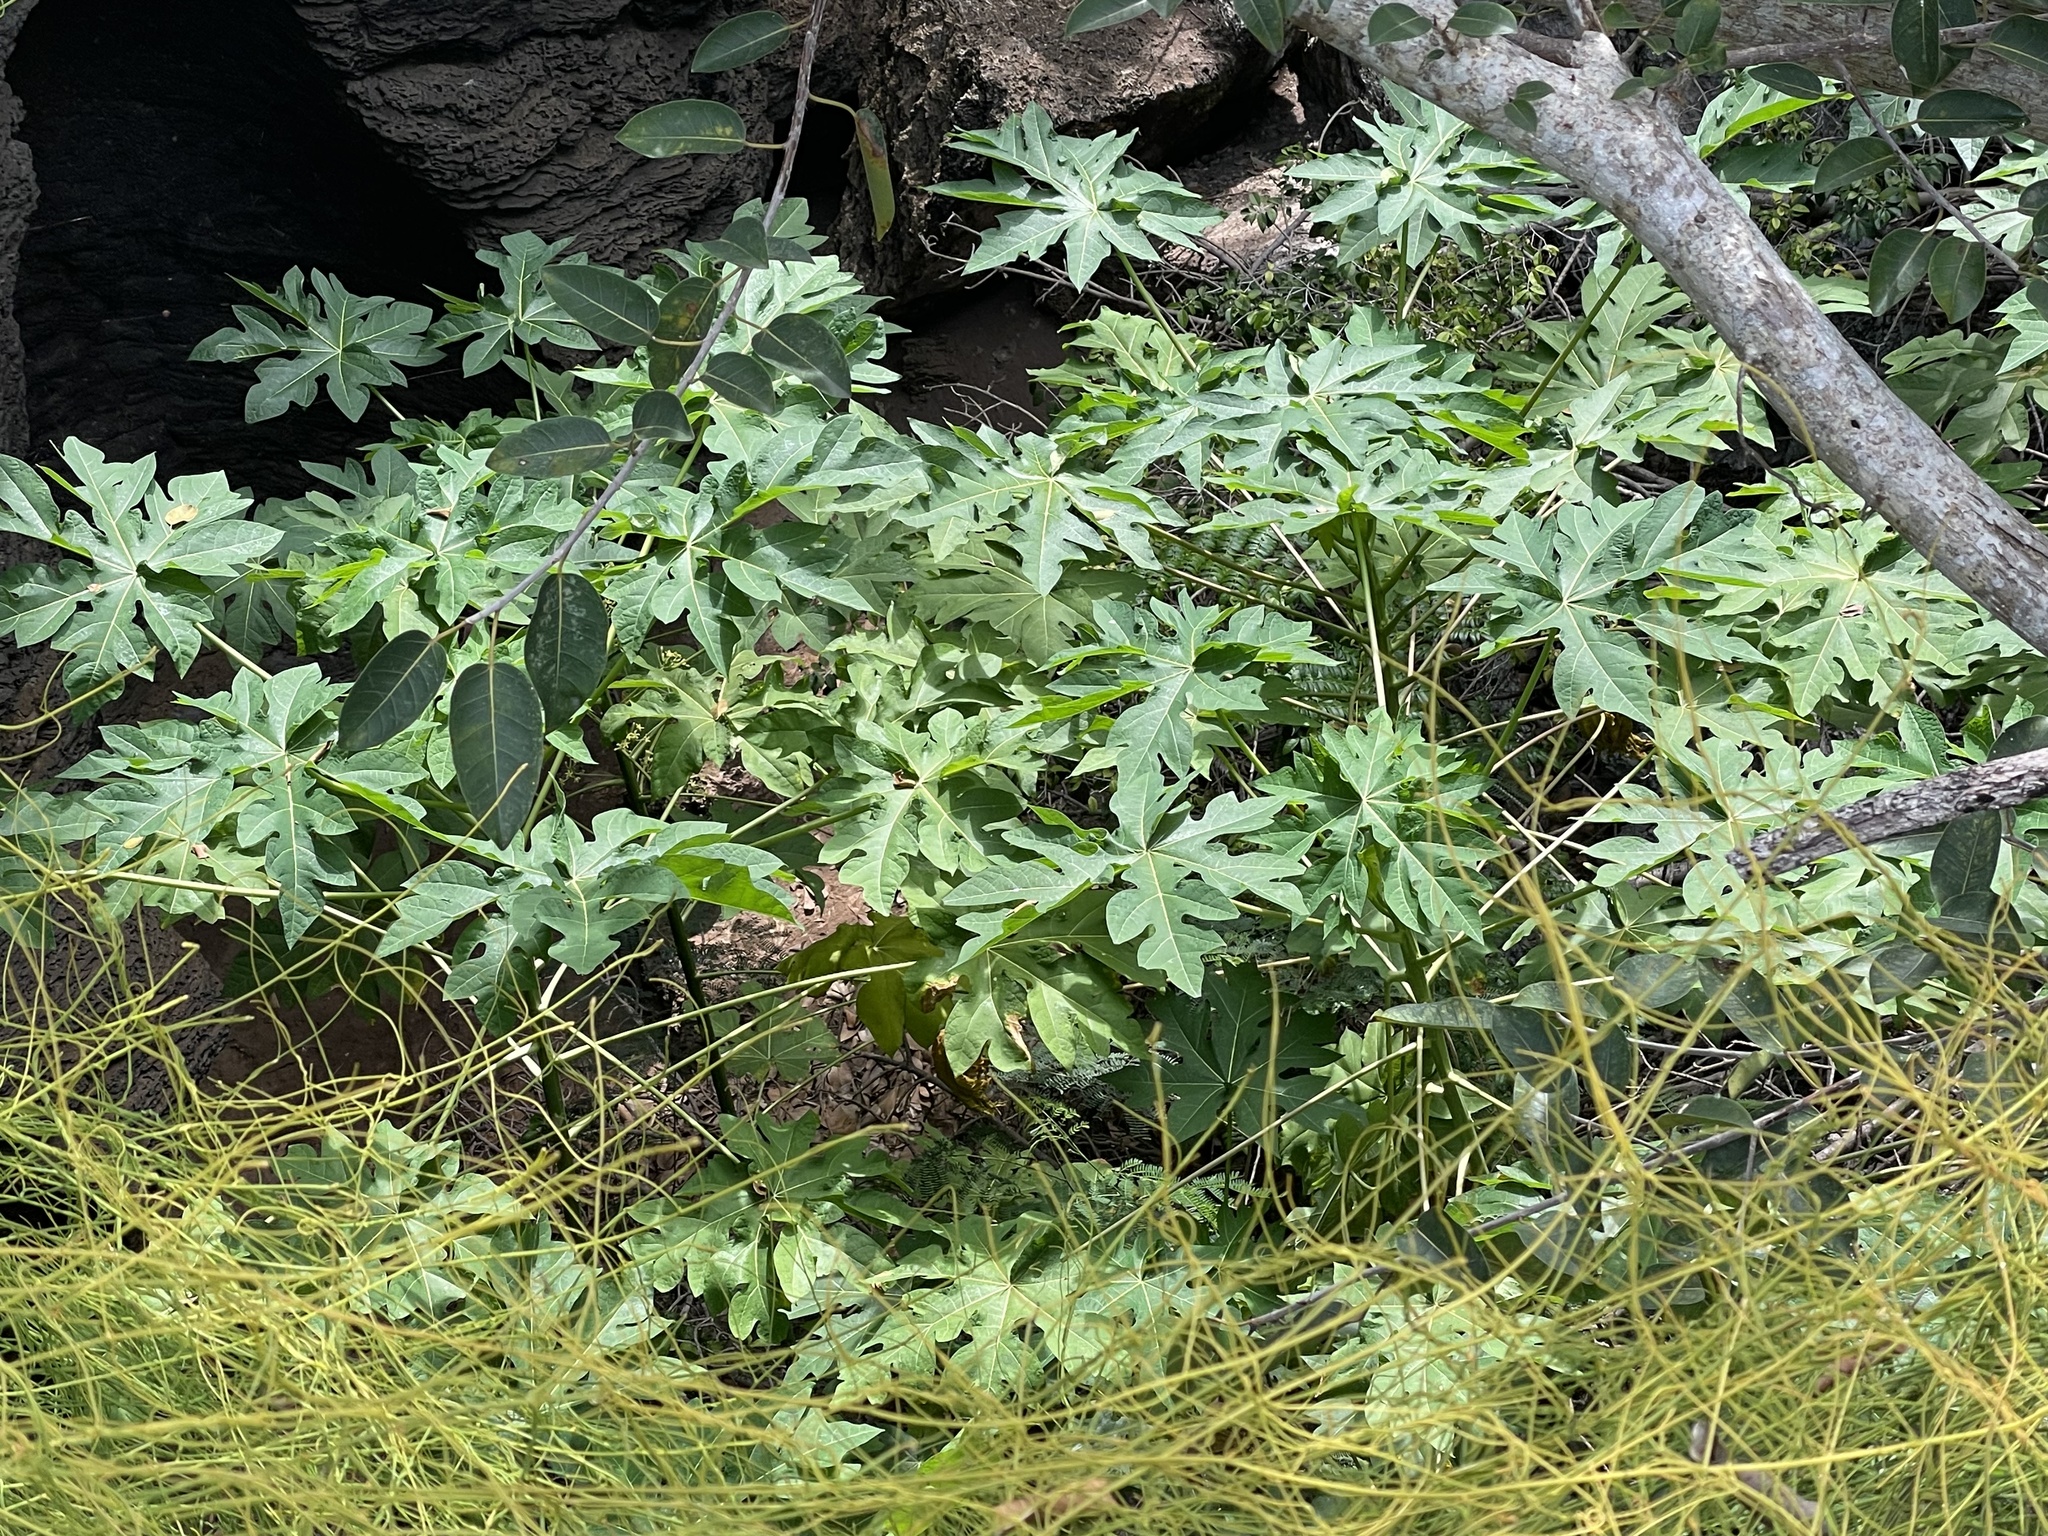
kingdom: Plantae
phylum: Tracheophyta
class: Magnoliopsida
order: Brassicales
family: Caricaceae
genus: Carica
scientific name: Carica papaya
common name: Papaya
